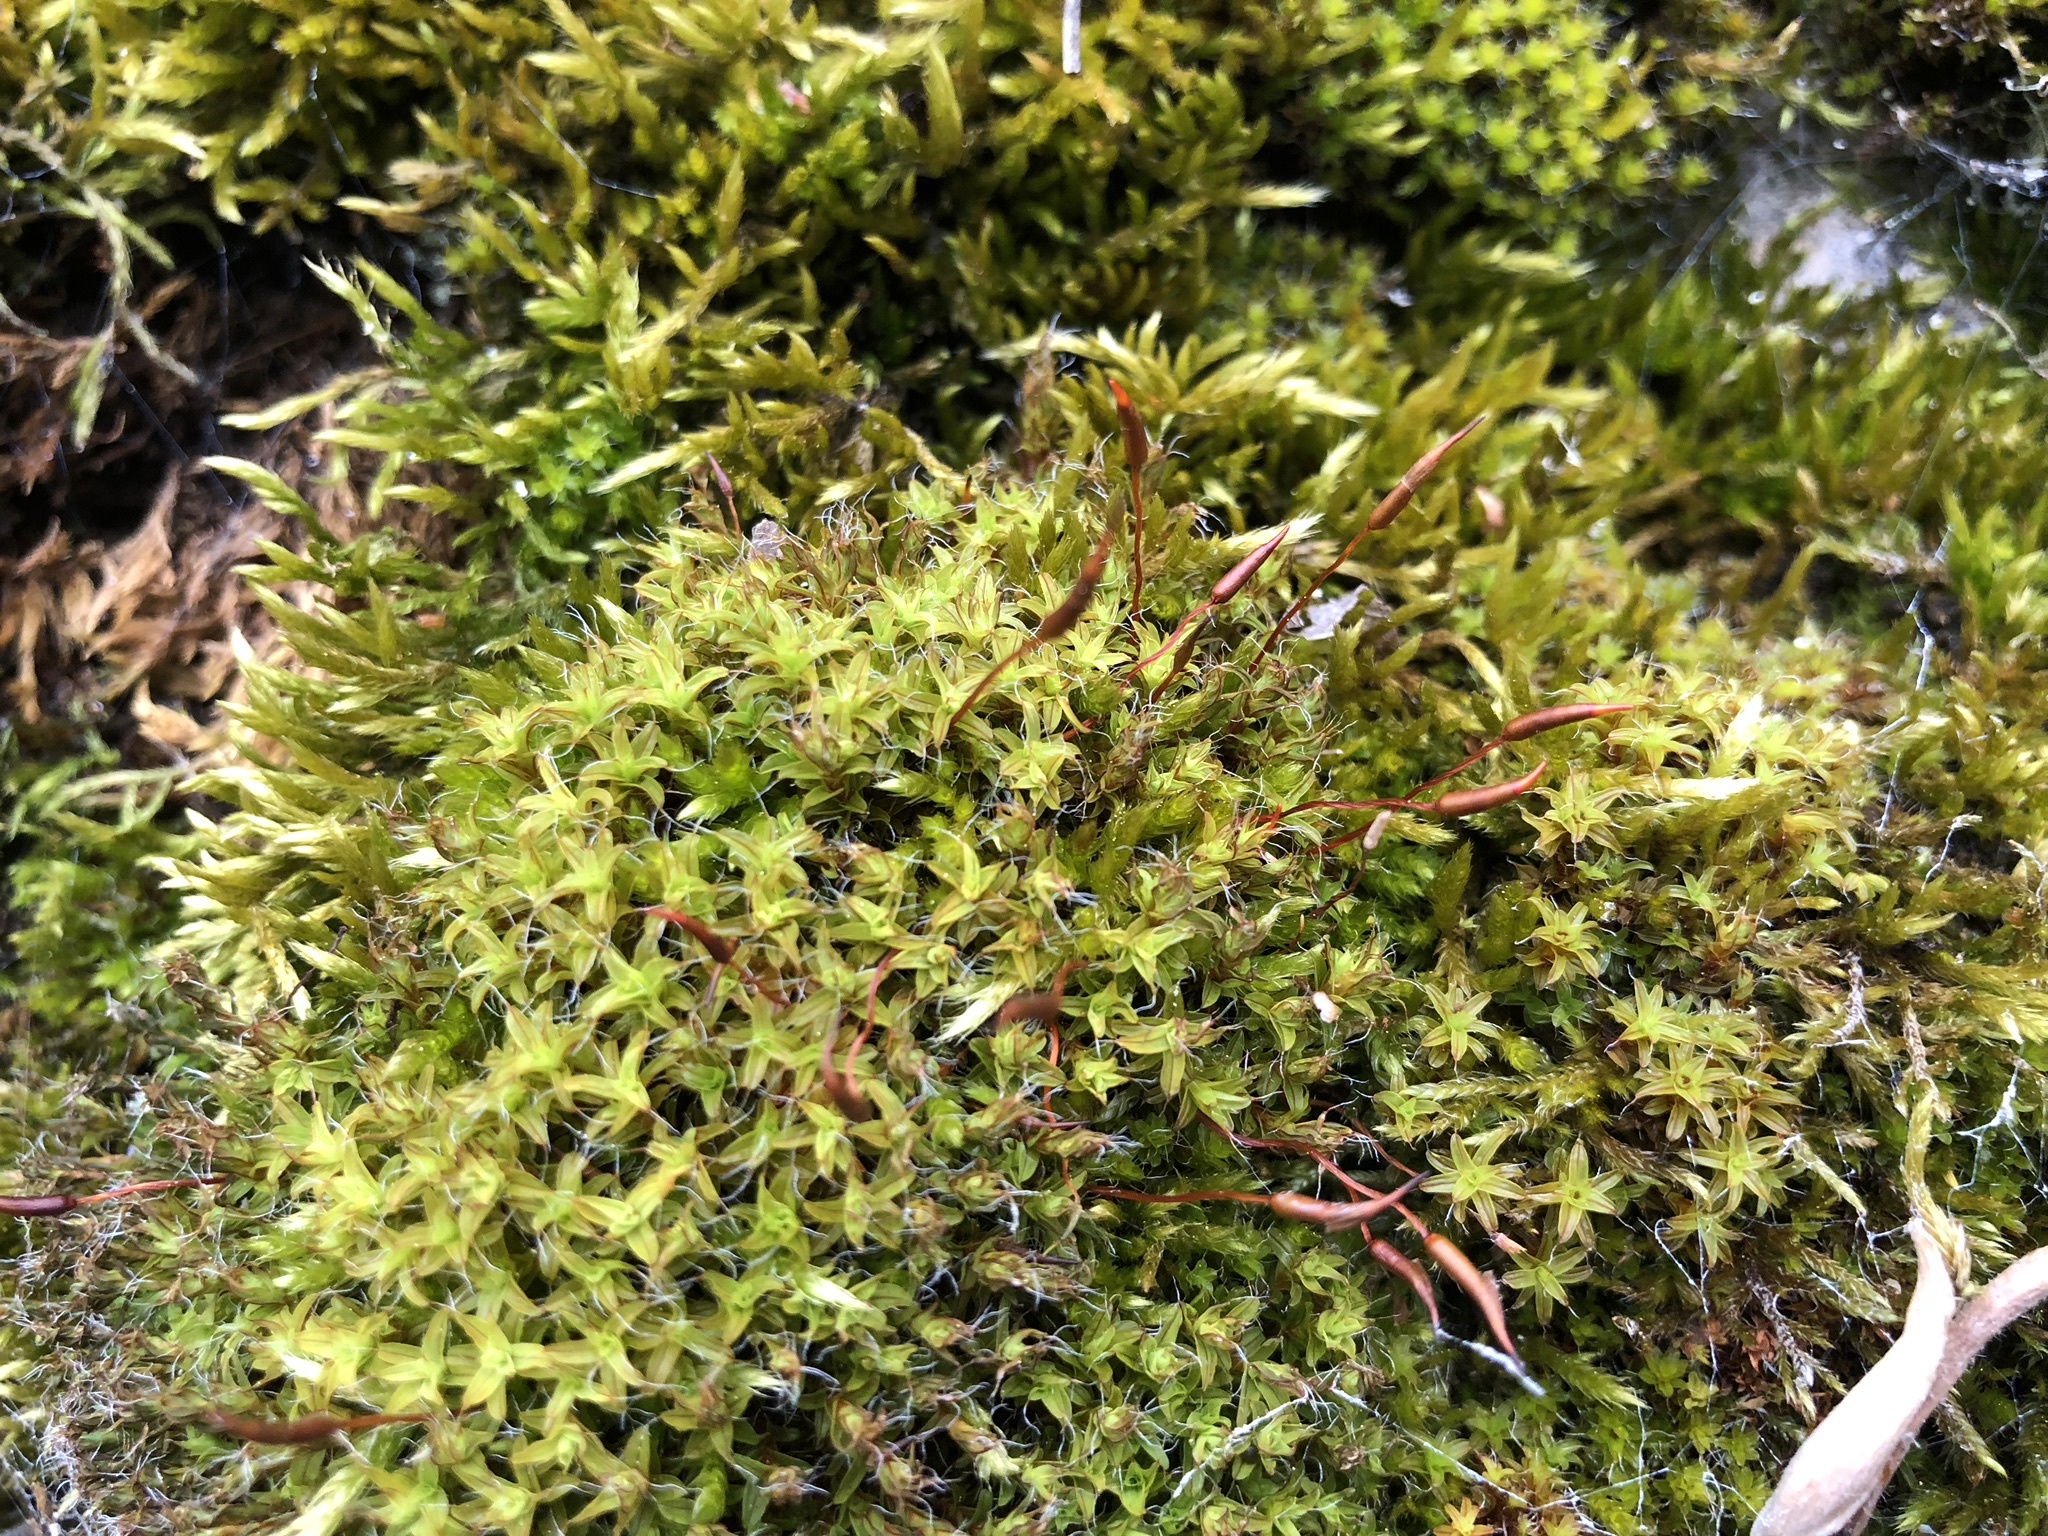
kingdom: Plantae
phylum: Bryophyta
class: Bryopsida
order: Pottiales
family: Pottiaceae
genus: Syntrichia
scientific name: Syntrichia ruralis
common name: Sidewalk screw moss
